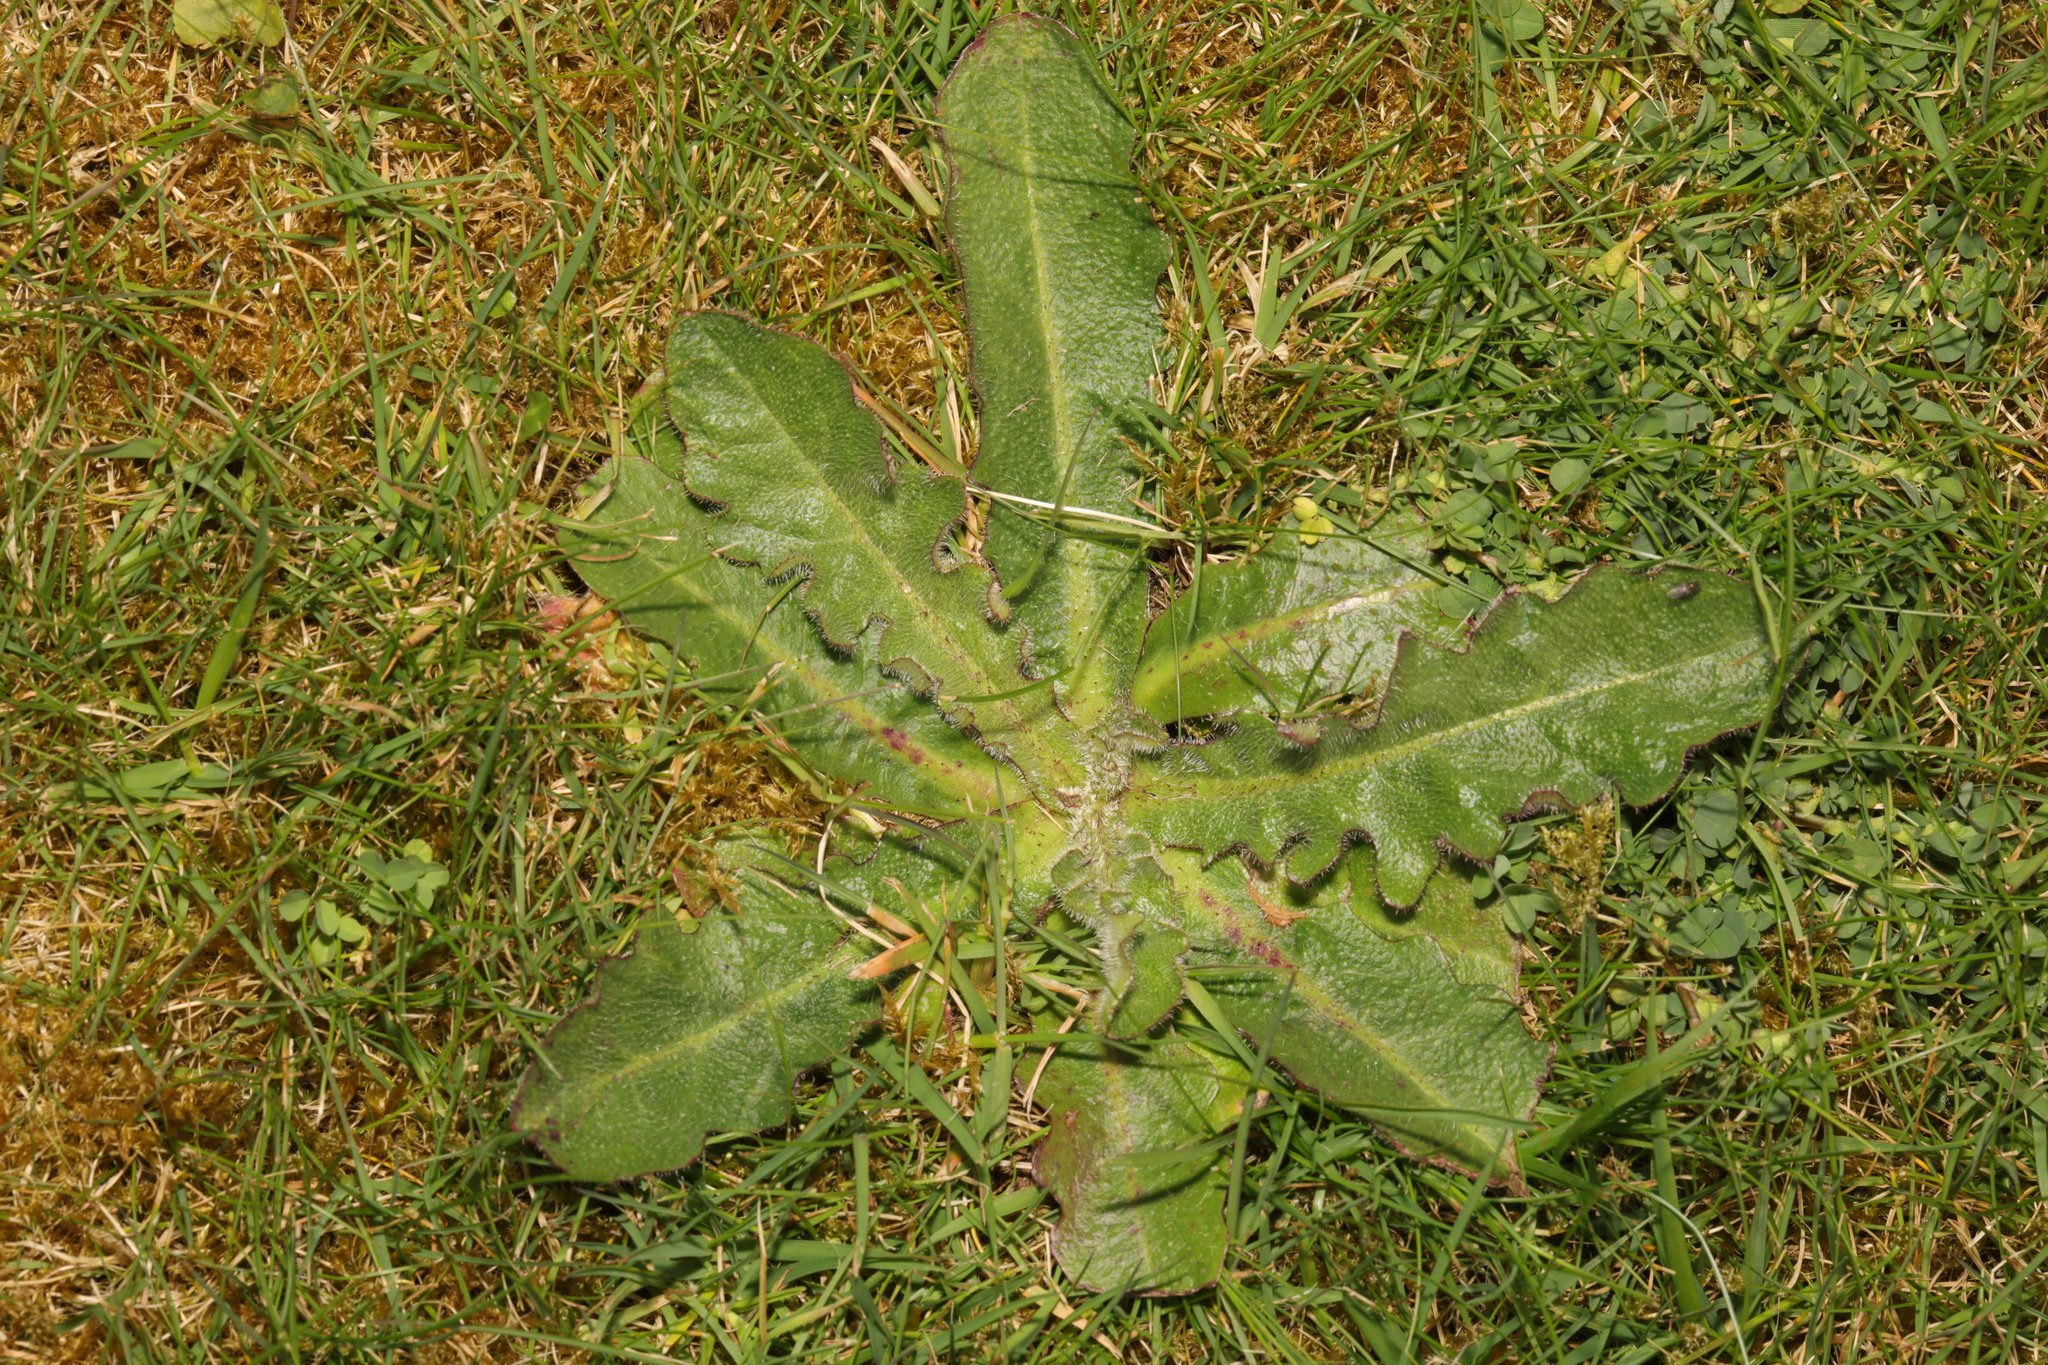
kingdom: Plantae
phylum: Tracheophyta
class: Magnoliopsida
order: Asterales
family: Asteraceae
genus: Hypochaeris
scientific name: Hypochaeris radicata
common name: Flatweed
